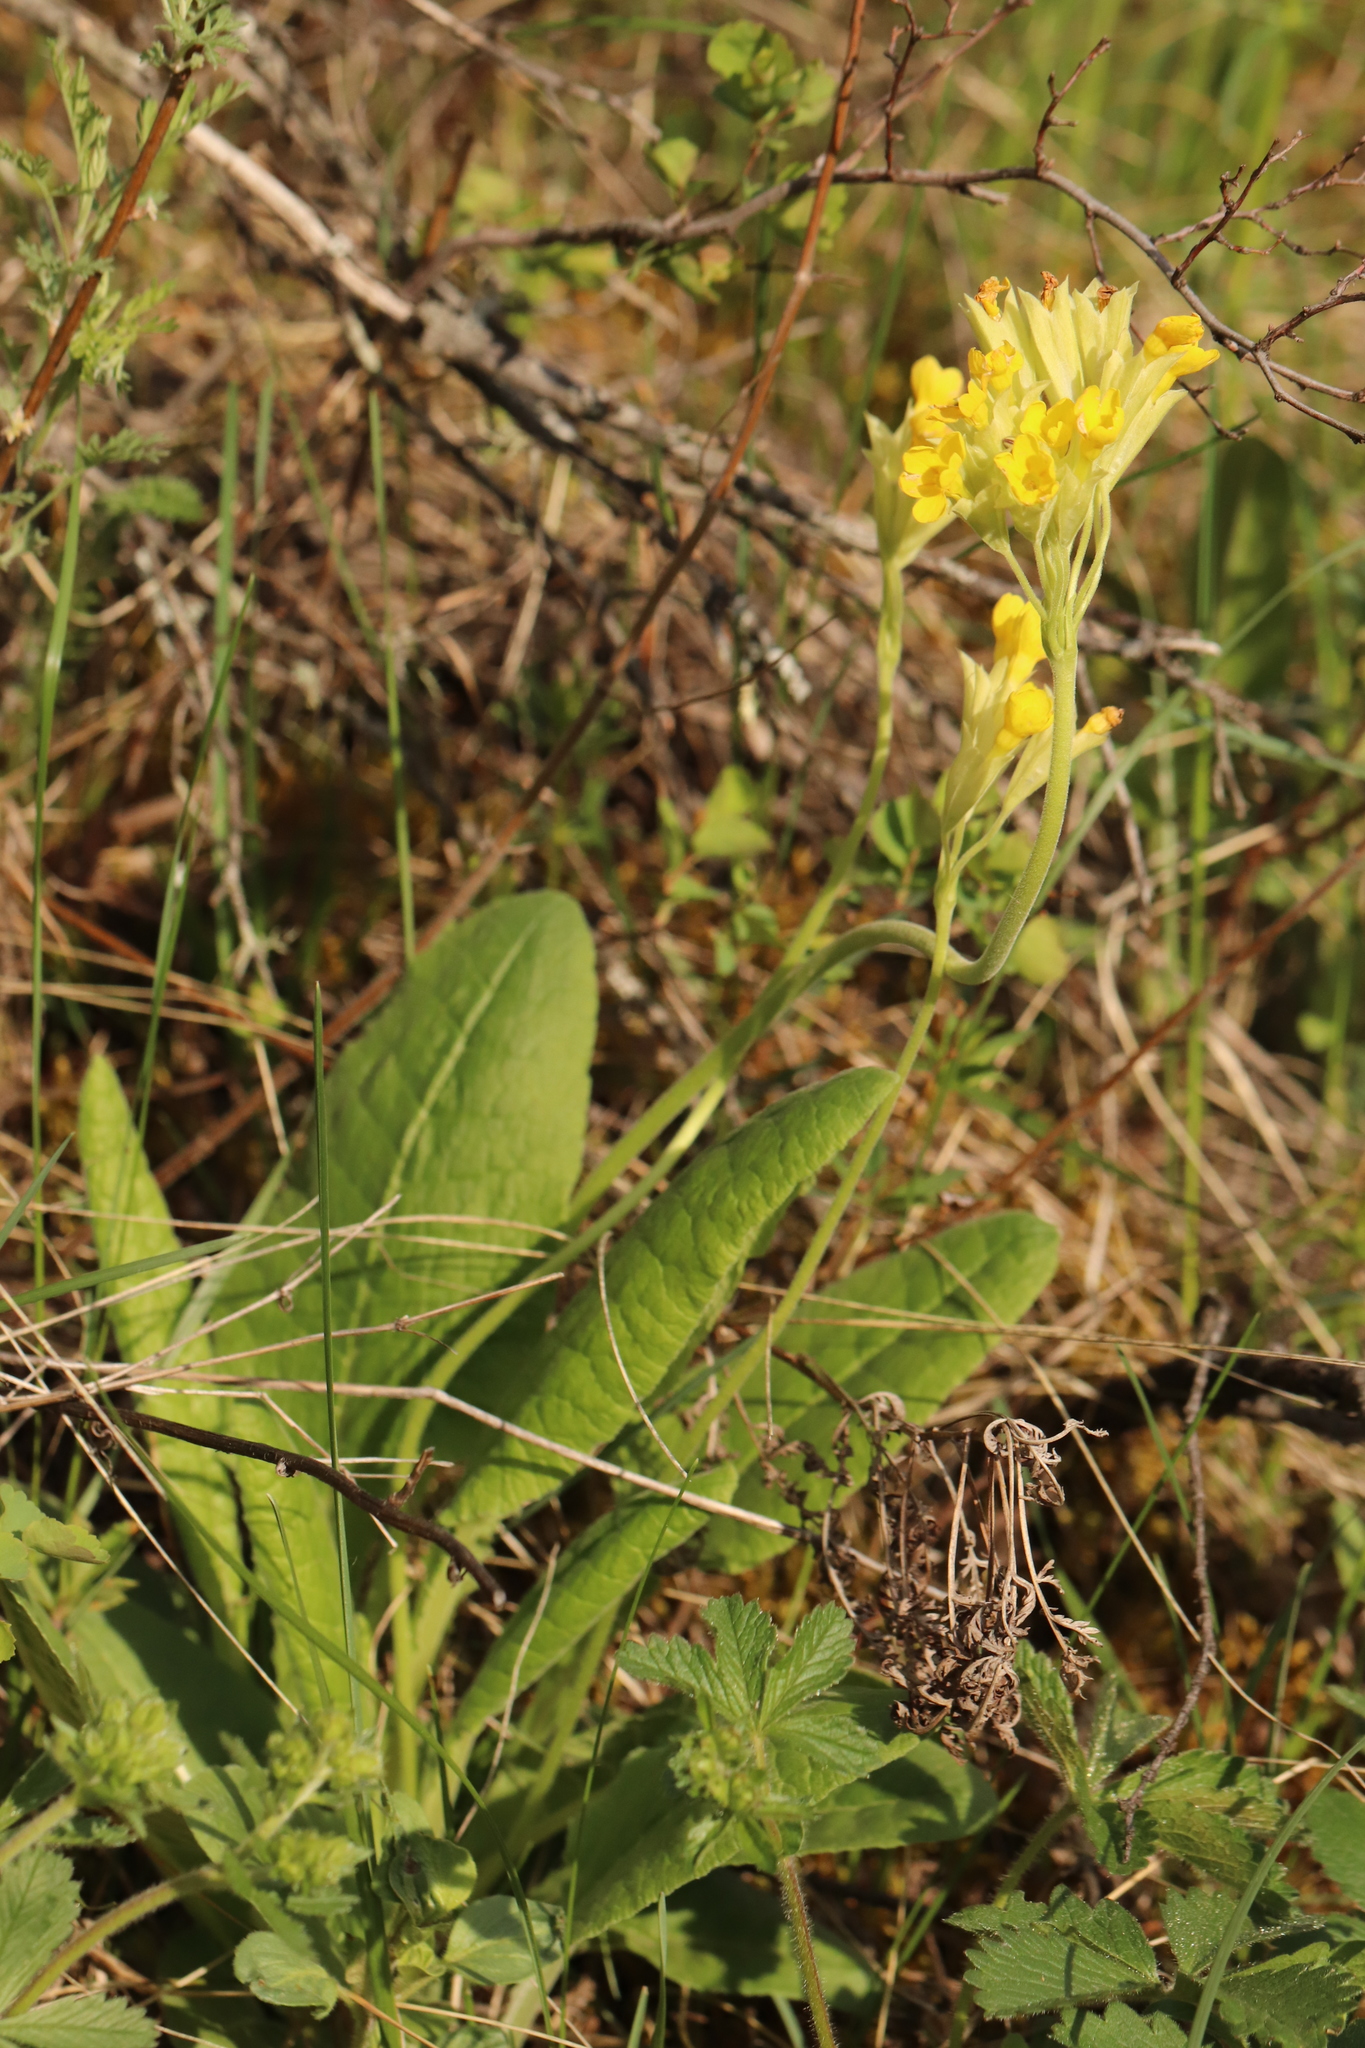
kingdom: Plantae
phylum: Tracheophyta
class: Magnoliopsida
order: Ericales
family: Primulaceae
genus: Primula
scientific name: Primula veris
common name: Cowslip
